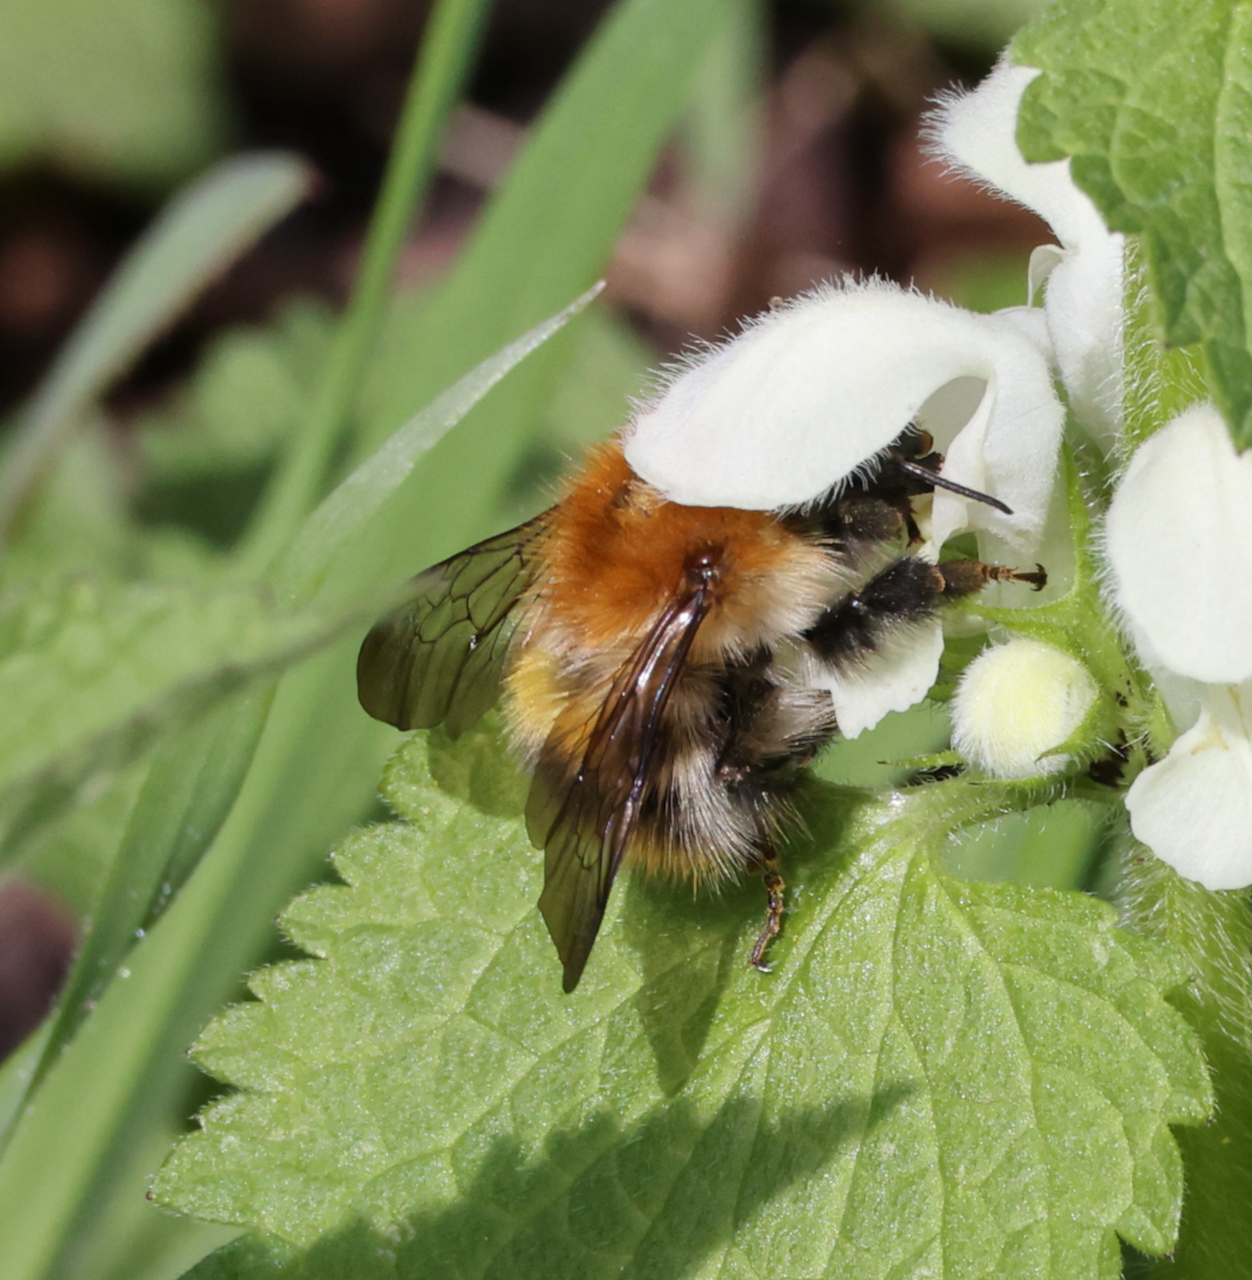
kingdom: Animalia
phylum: Arthropoda
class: Insecta
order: Hymenoptera
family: Apidae
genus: Bombus
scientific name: Bombus pascuorum
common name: Common carder bee
